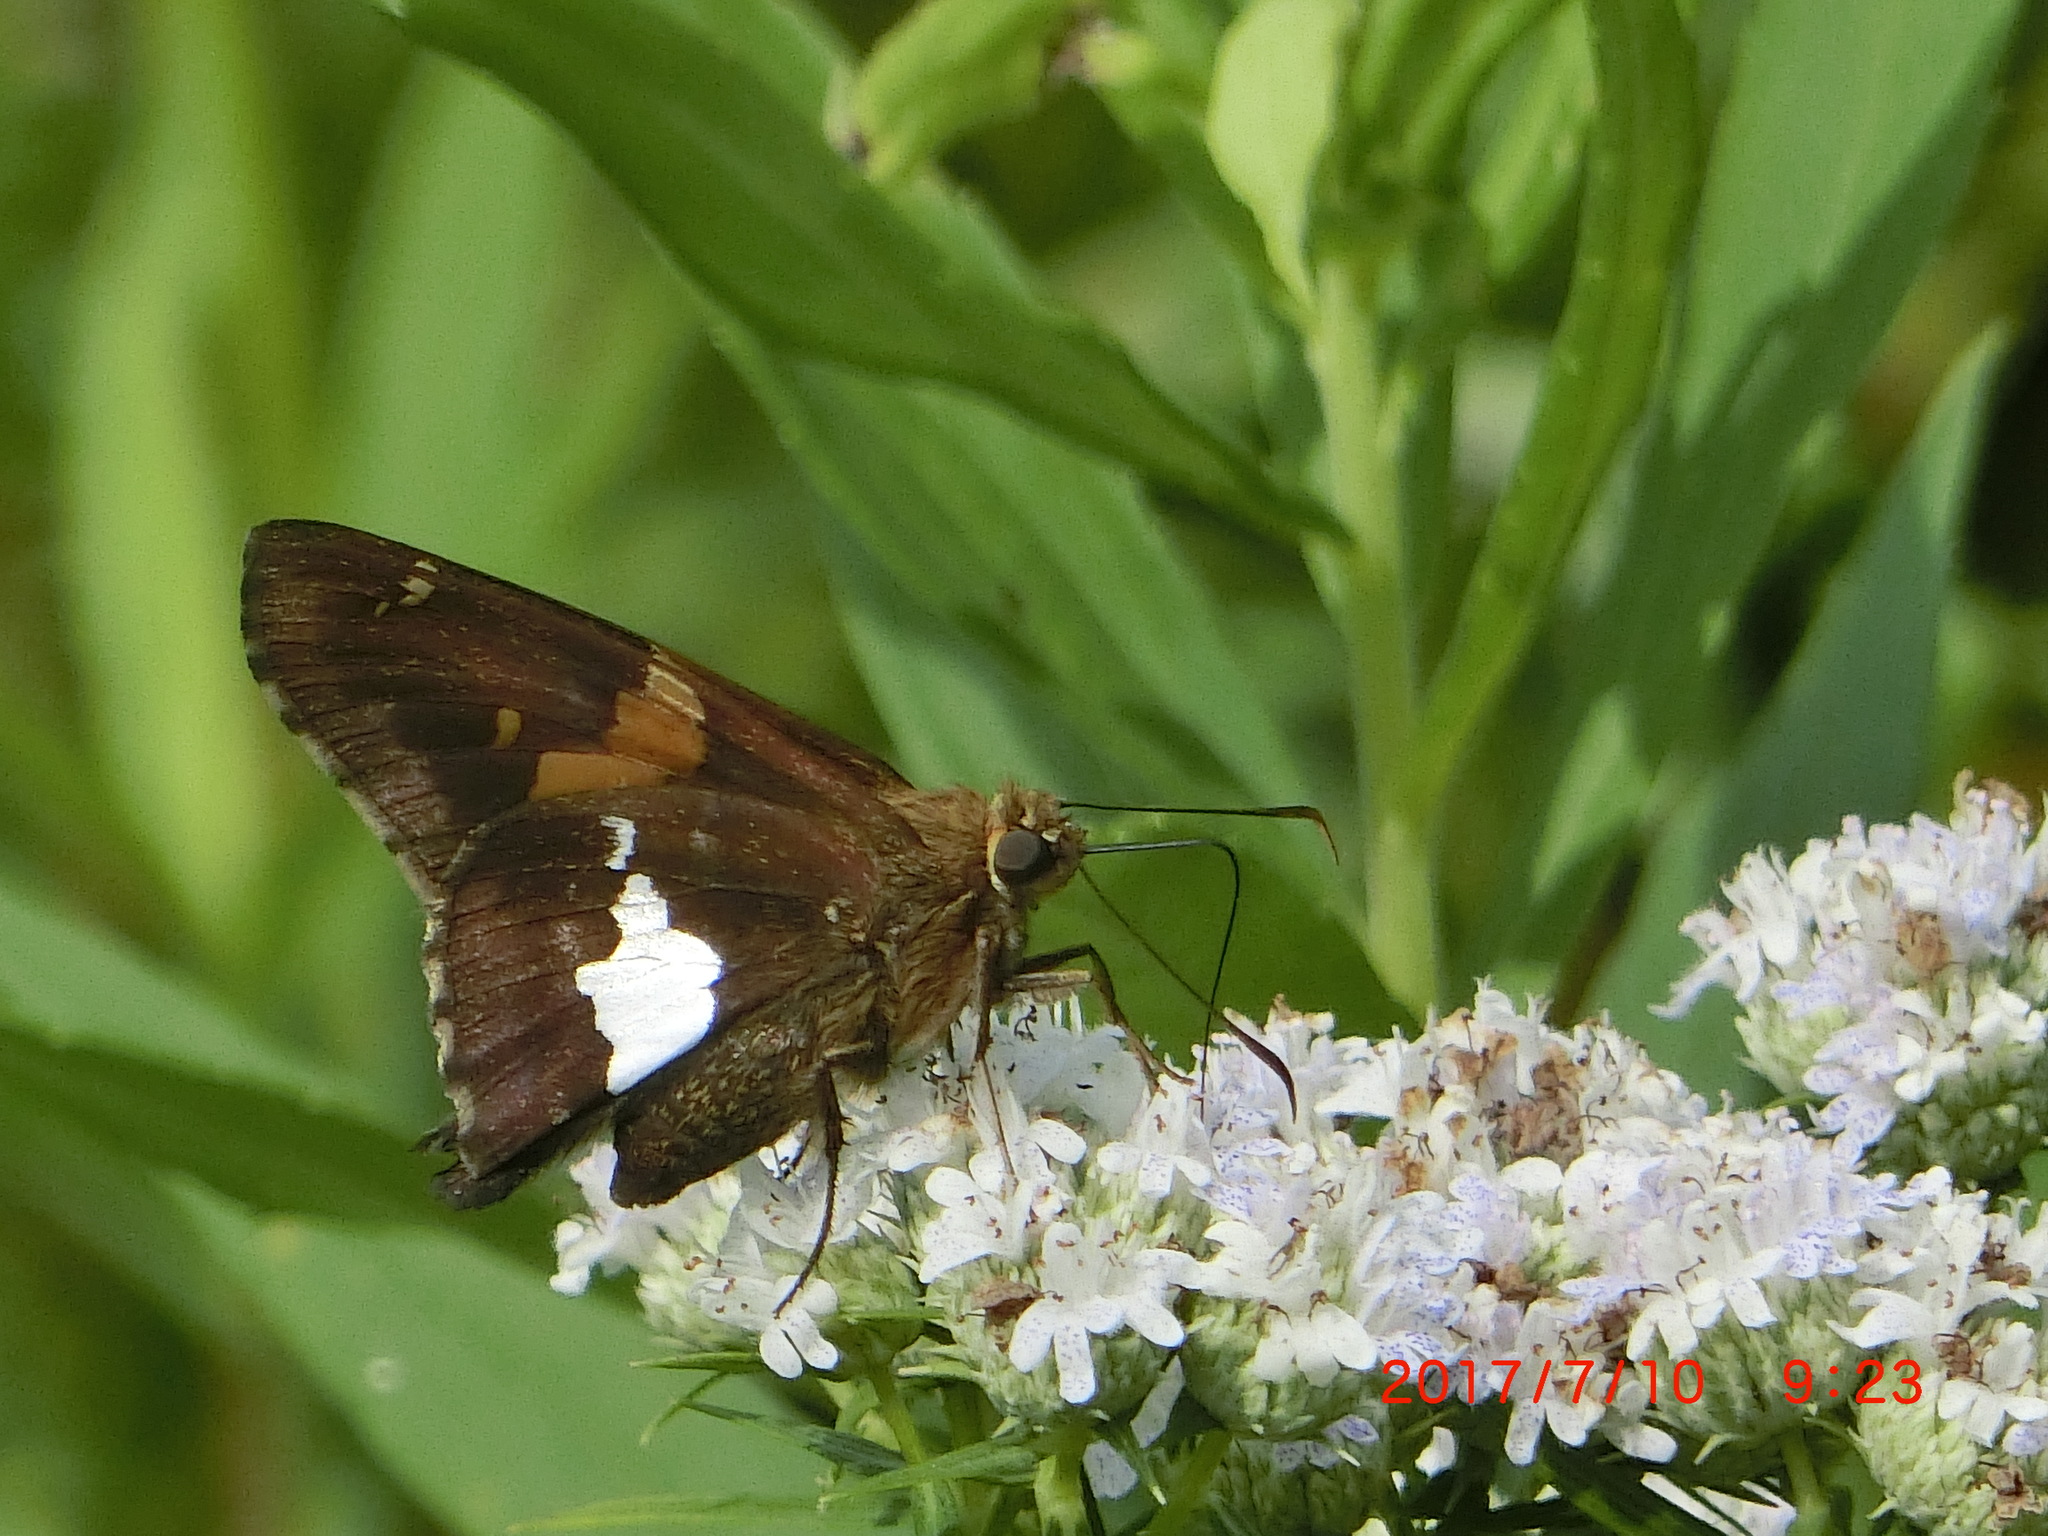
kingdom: Animalia
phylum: Arthropoda
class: Insecta
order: Lepidoptera
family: Hesperiidae
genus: Epargyreus
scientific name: Epargyreus clarus
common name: Silver-spotted skipper
